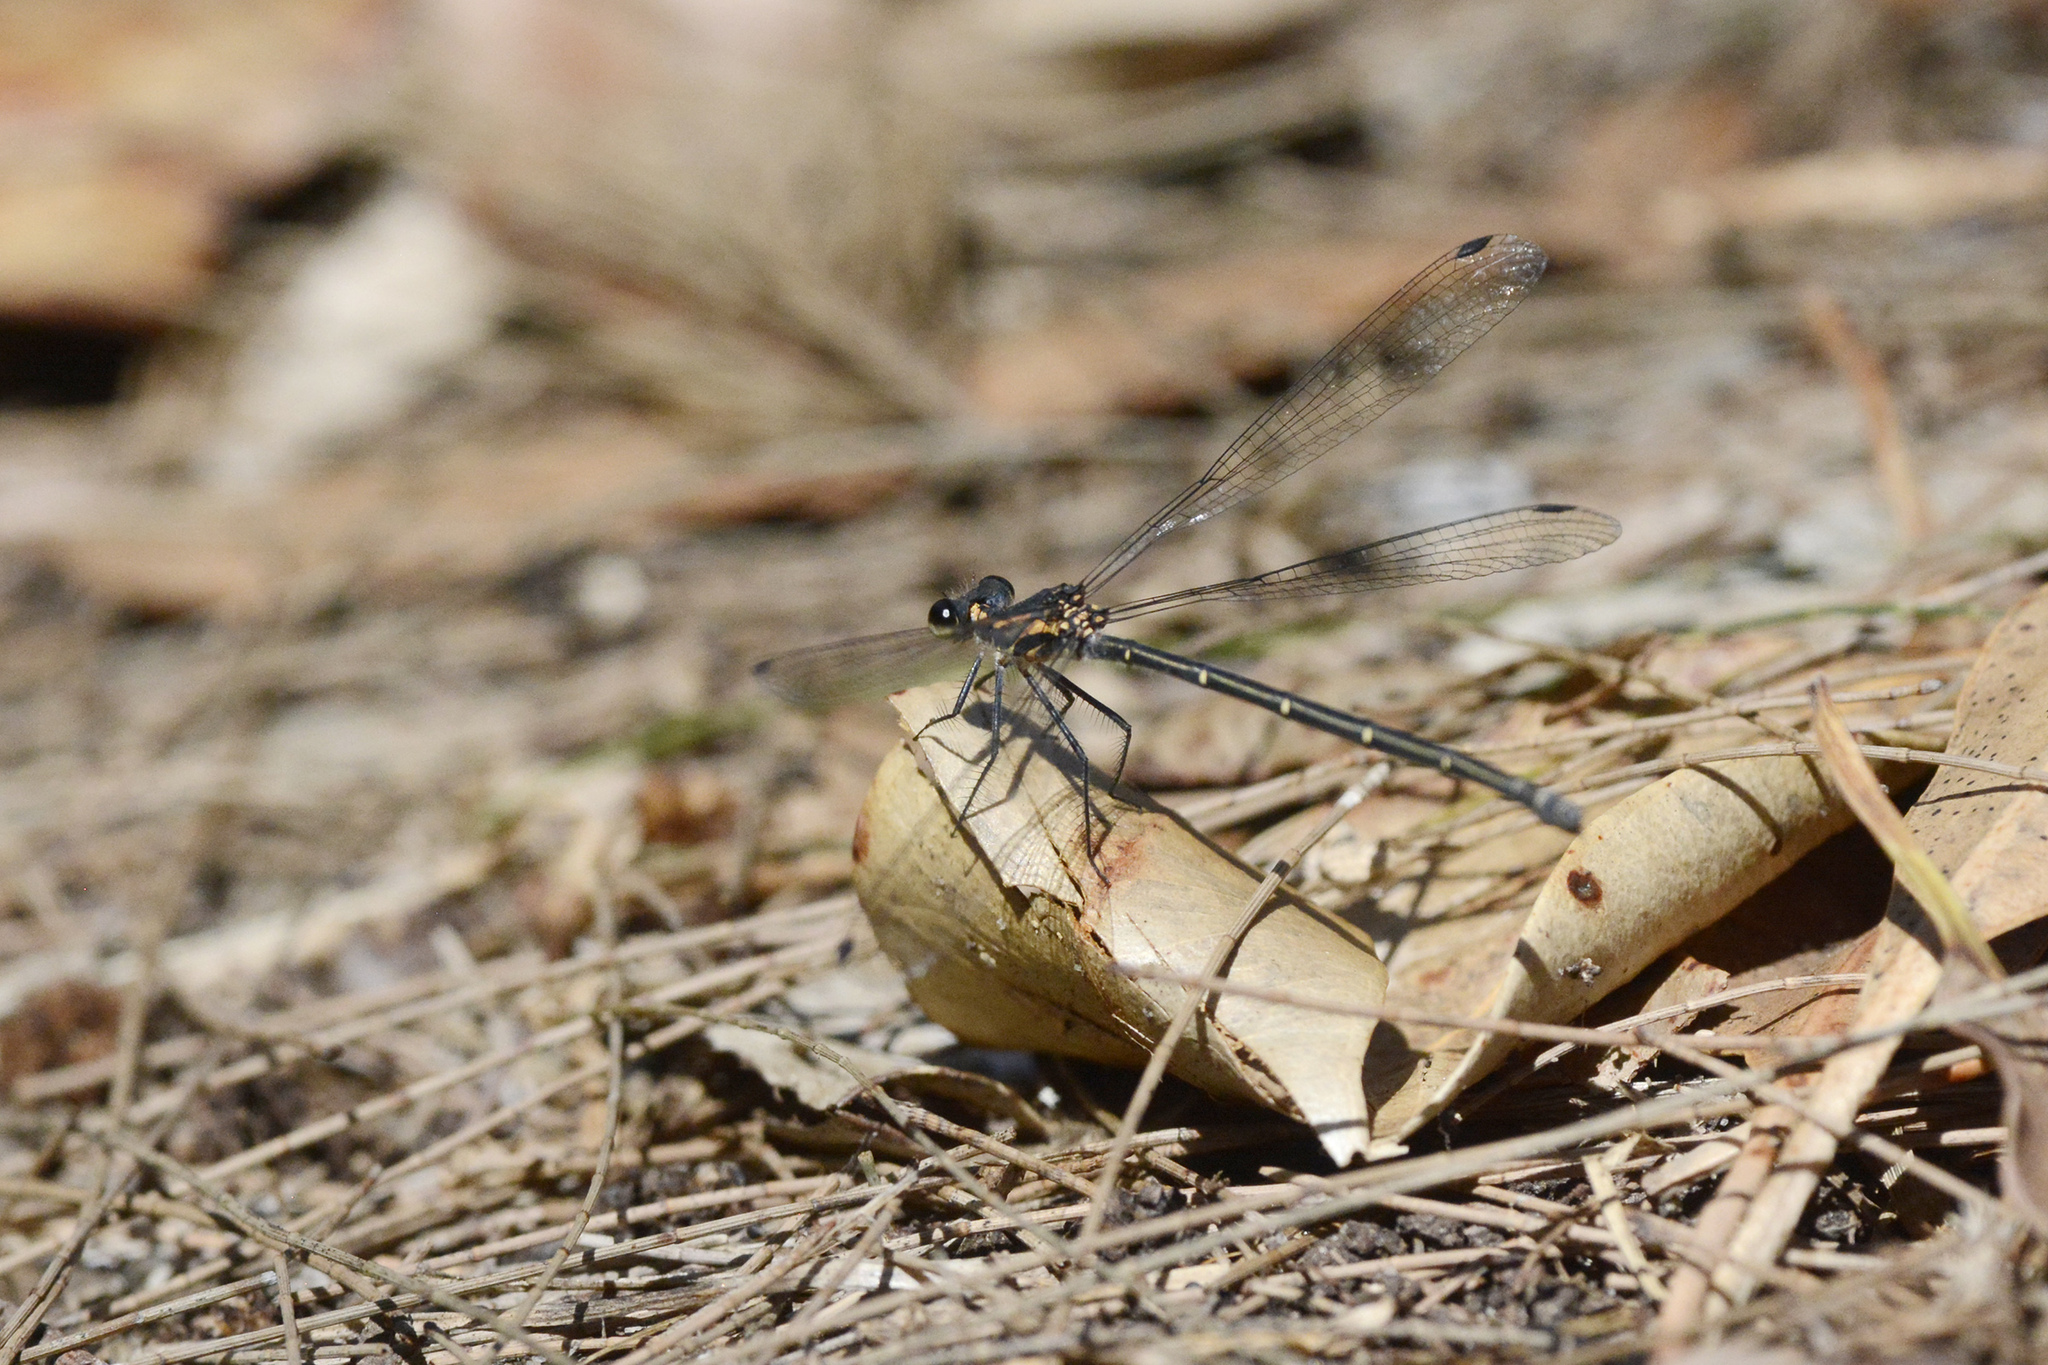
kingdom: Animalia
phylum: Arthropoda
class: Insecta
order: Odonata
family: Argiolestidae
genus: Austroargiolestes
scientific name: Austroargiolestes icteromelas
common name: Common flatwing
